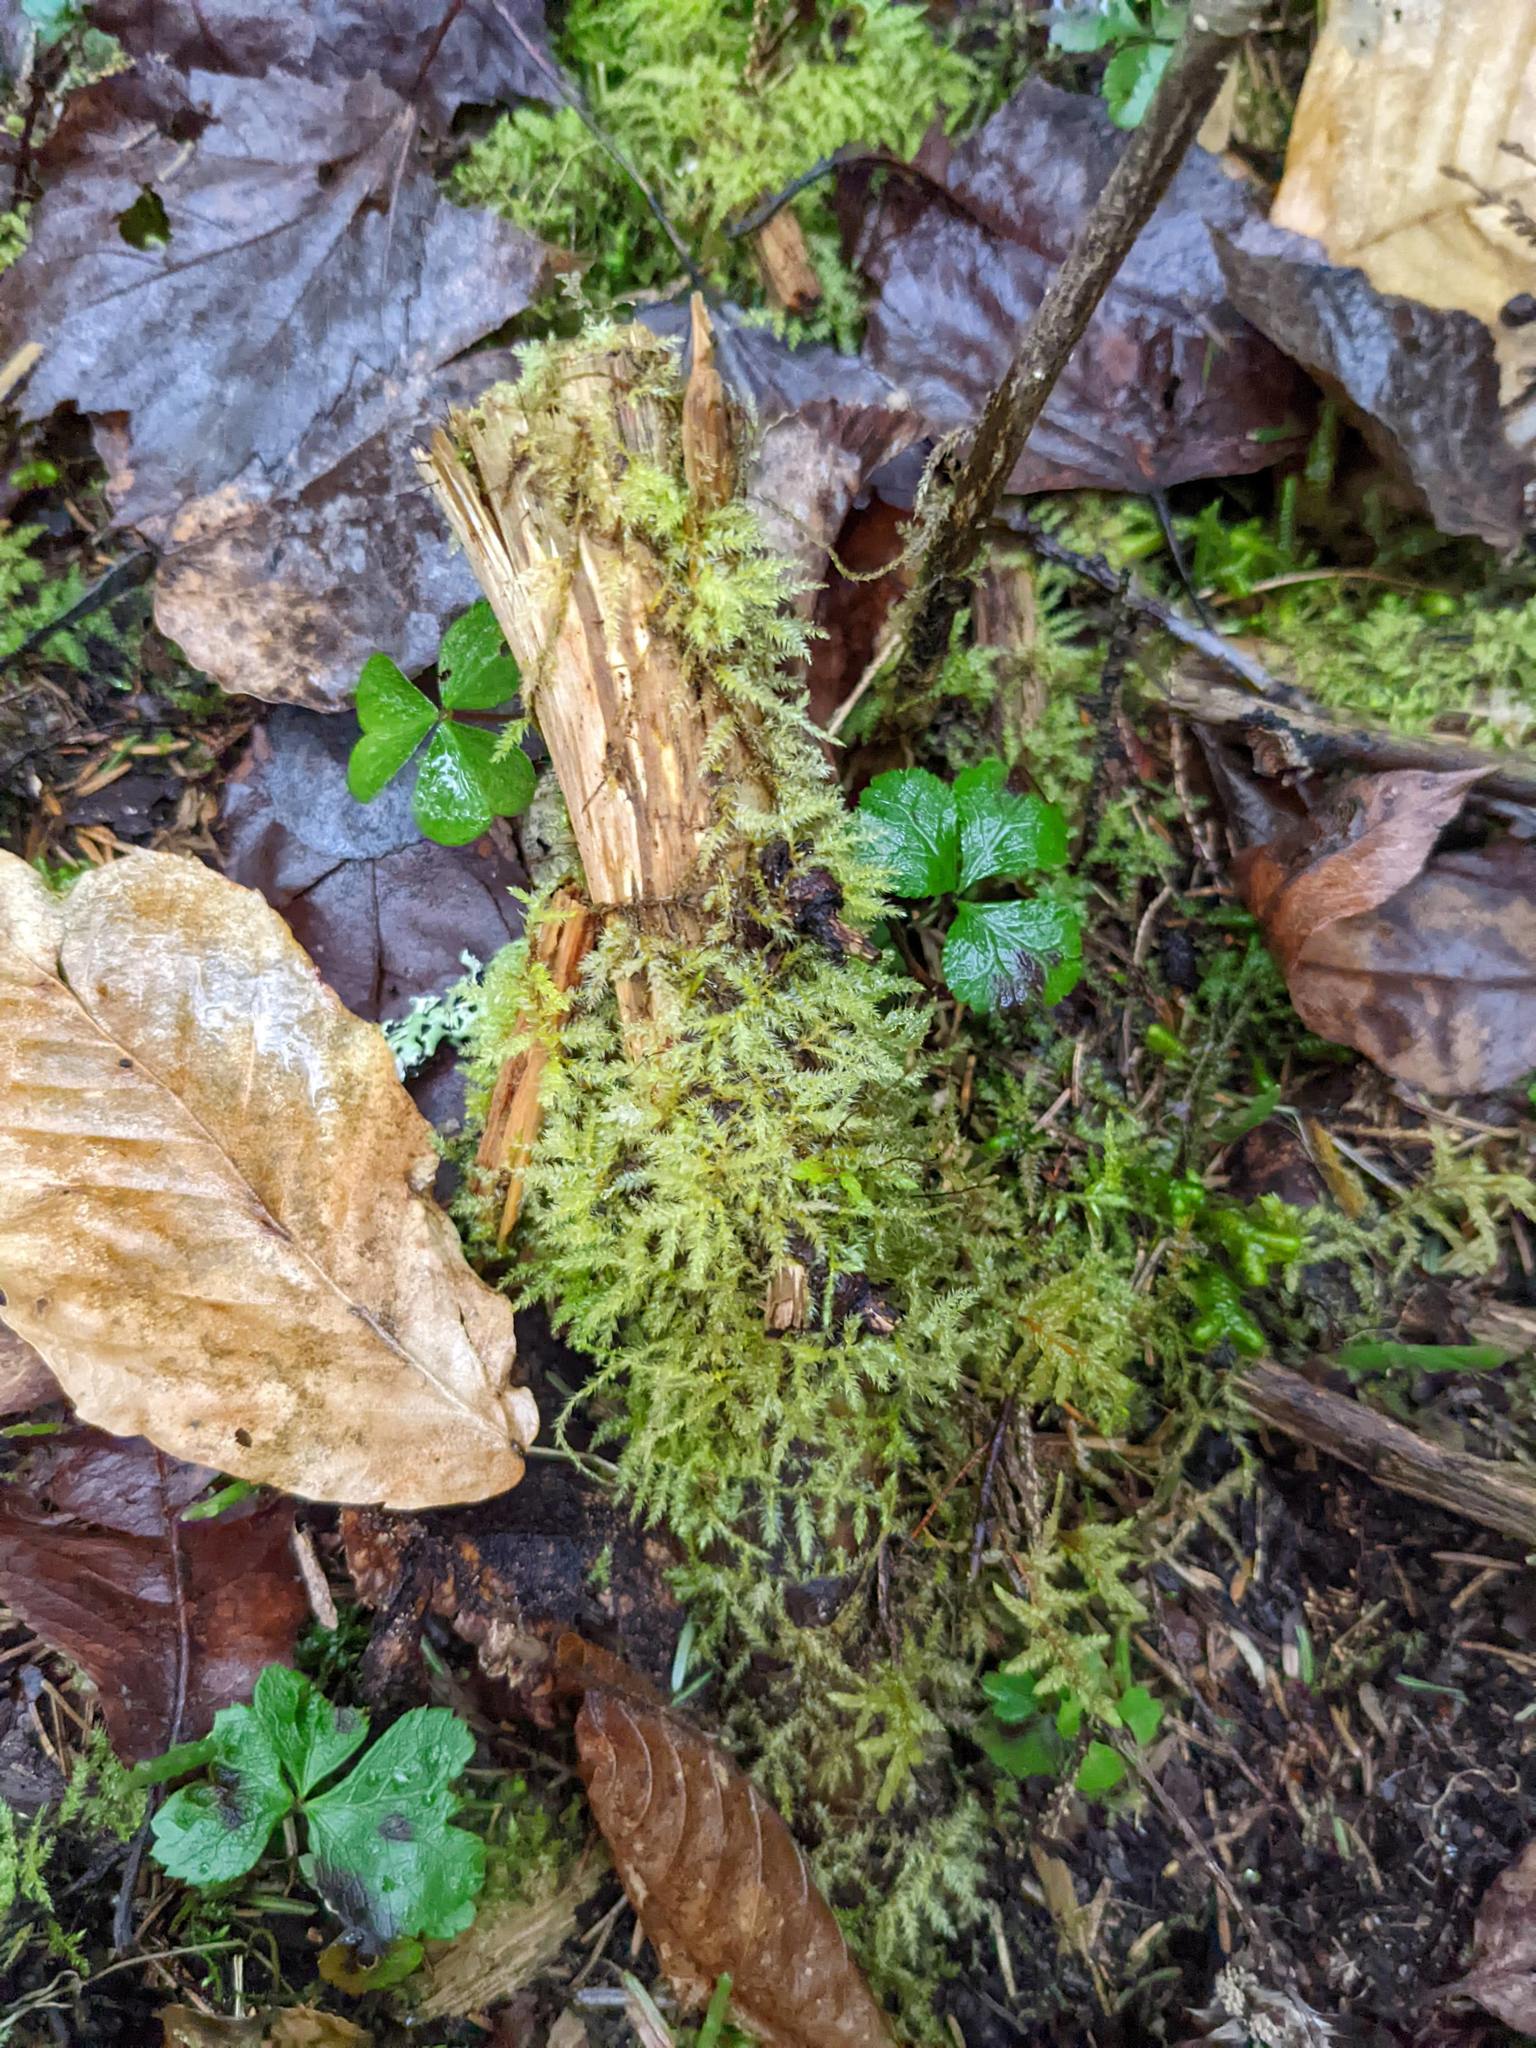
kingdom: Plantae
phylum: Tracheophyta
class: Magnoliopsida
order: Fagales
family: Fagaceae
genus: Fagus
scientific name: Fagus grandifolia
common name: American beech
